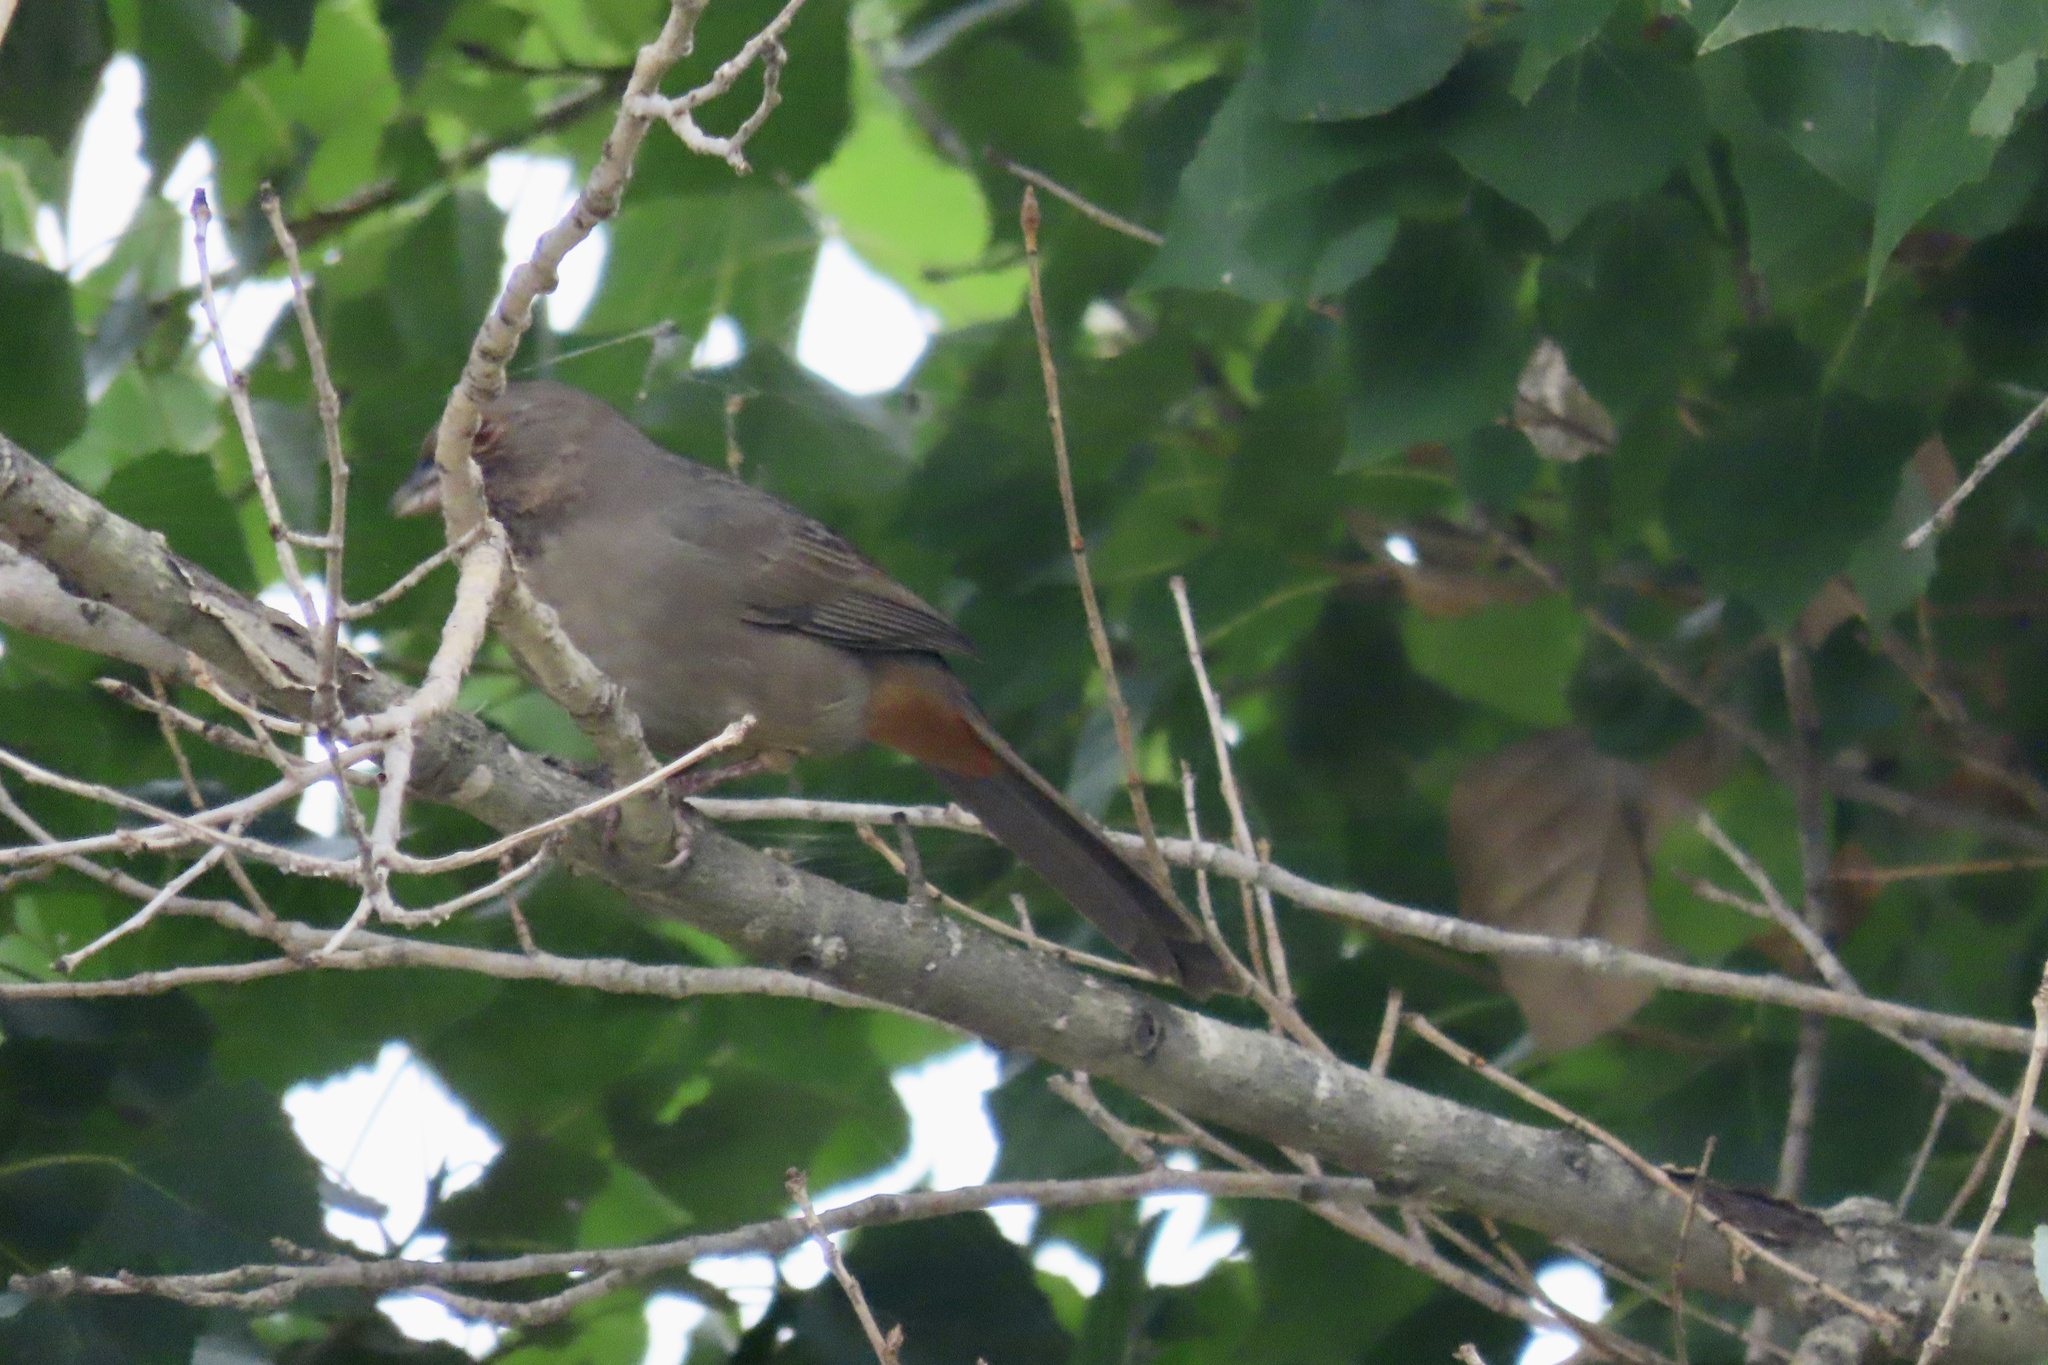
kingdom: Animalia
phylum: Chordata
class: Aves
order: Passeriformes
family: Passerellidae
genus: Melozone
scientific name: Melozone crissalis
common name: California towhee
